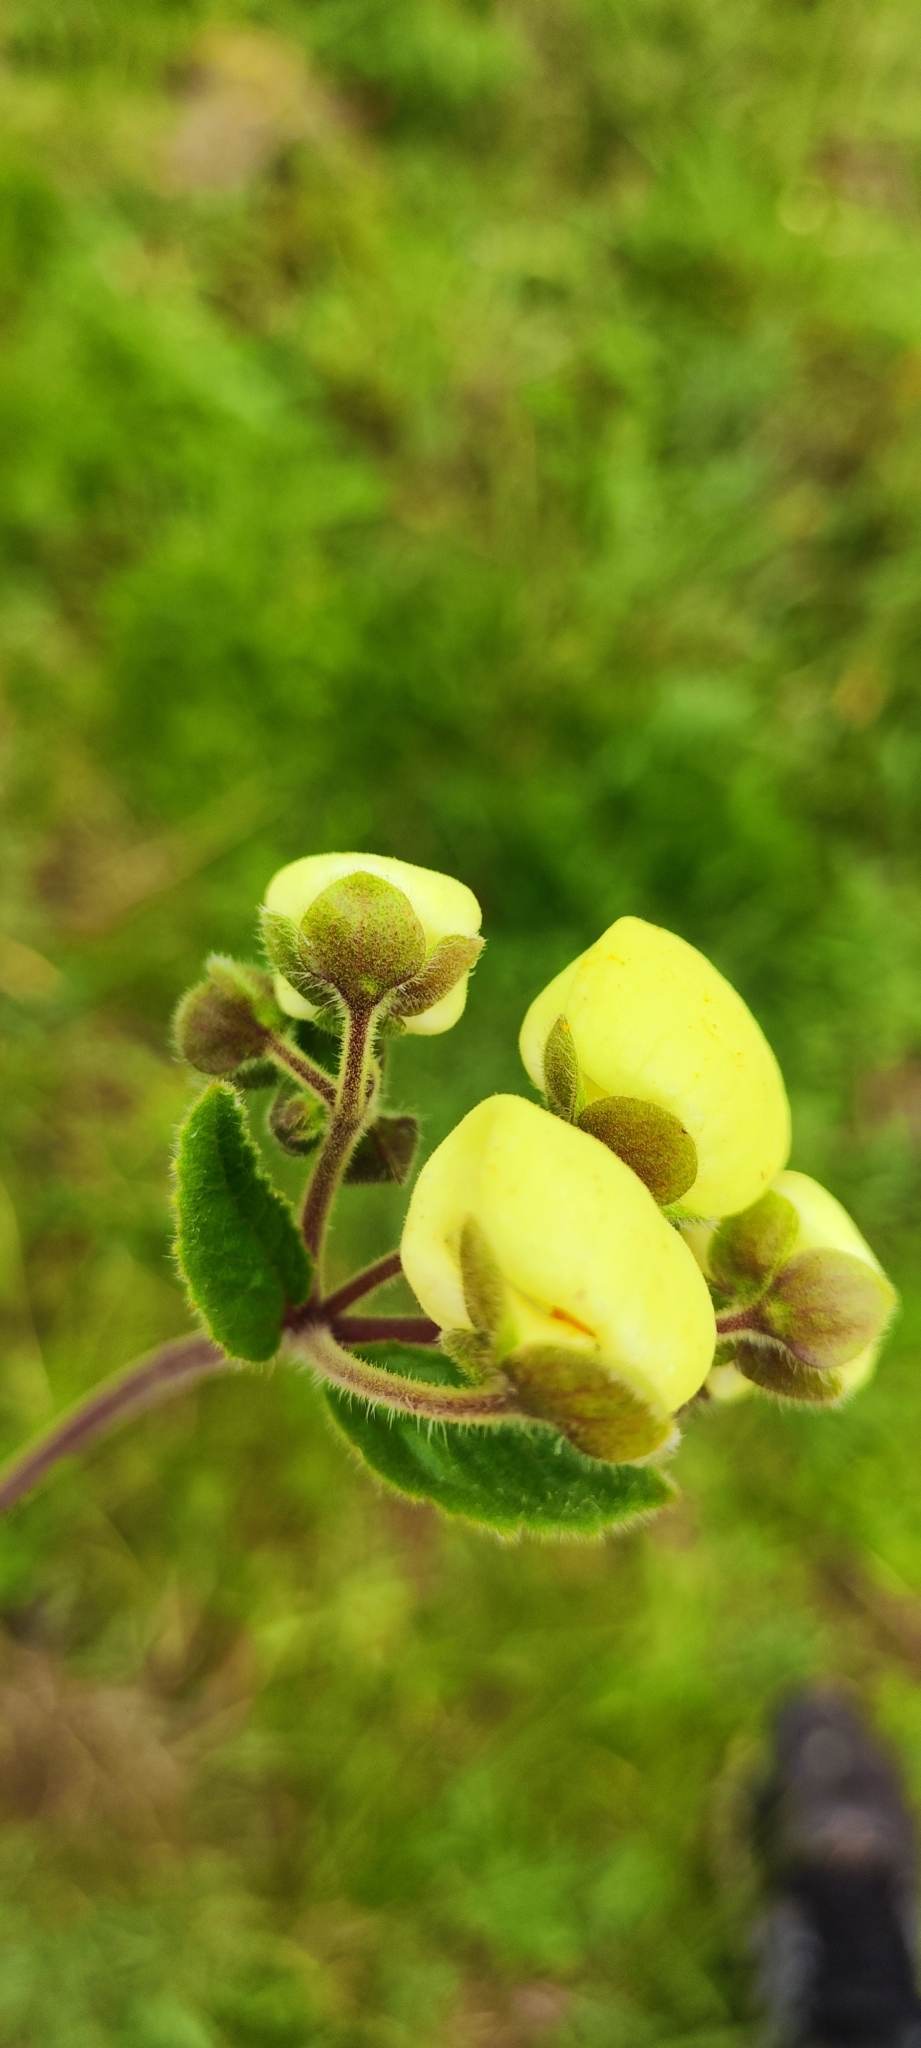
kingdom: Plantae
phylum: Tracheophyta
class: Magnoliopsida
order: Lamiales
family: Calceolariaceae
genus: Calceolaria
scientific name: Calceolaria hispida
